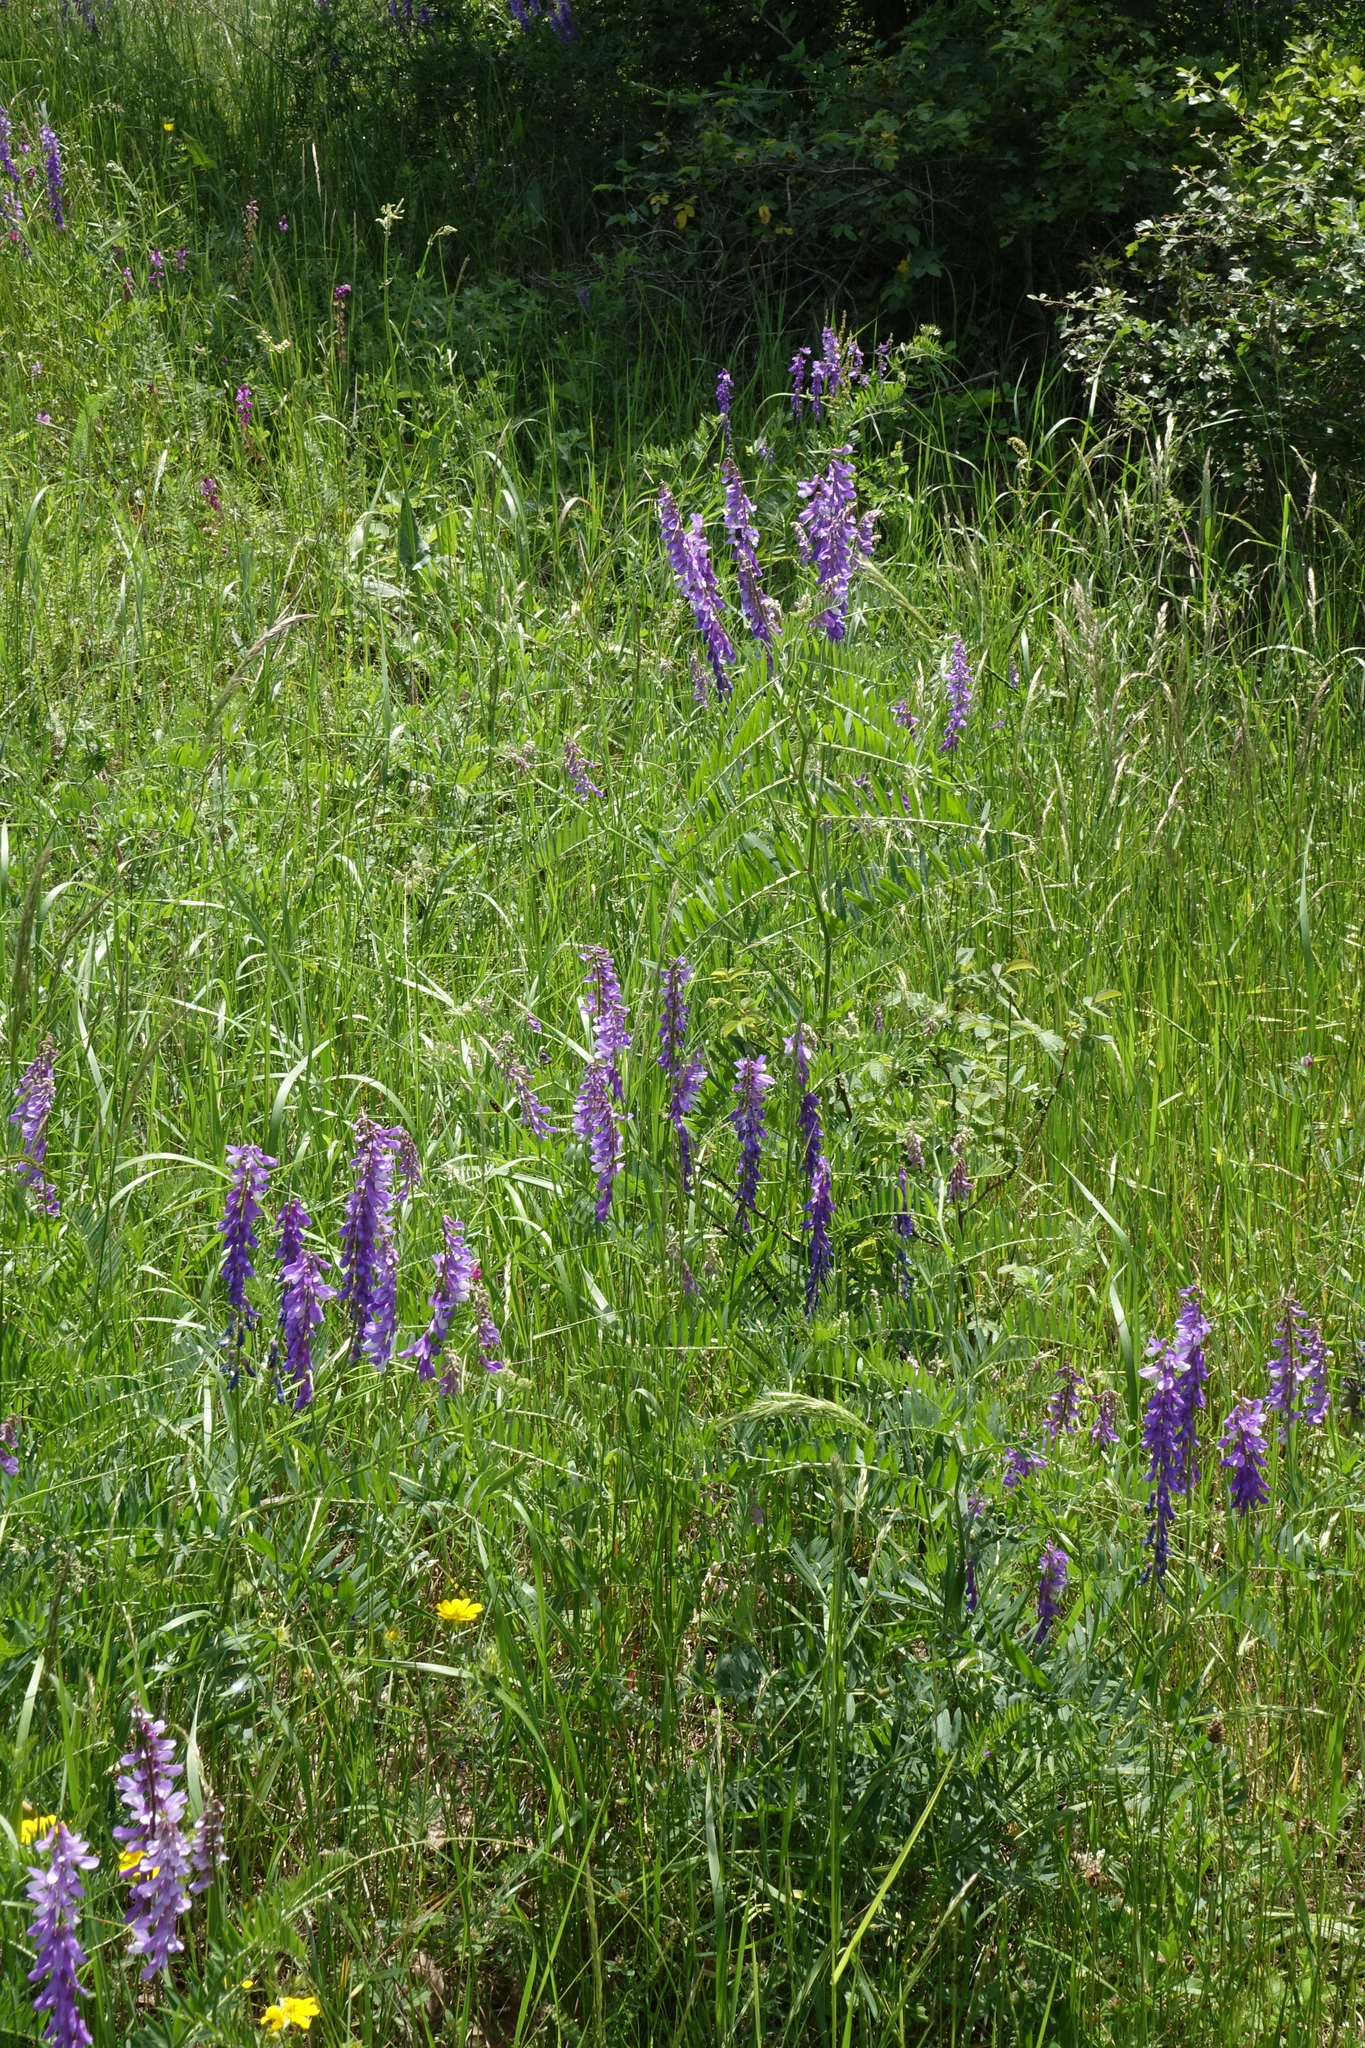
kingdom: Plantae
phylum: Tracheophyta
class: Magnoliopsida
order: Fabales
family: Fabaceae
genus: Vicia
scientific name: Vicia tenuifolia
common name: Fine-leaved vetch
